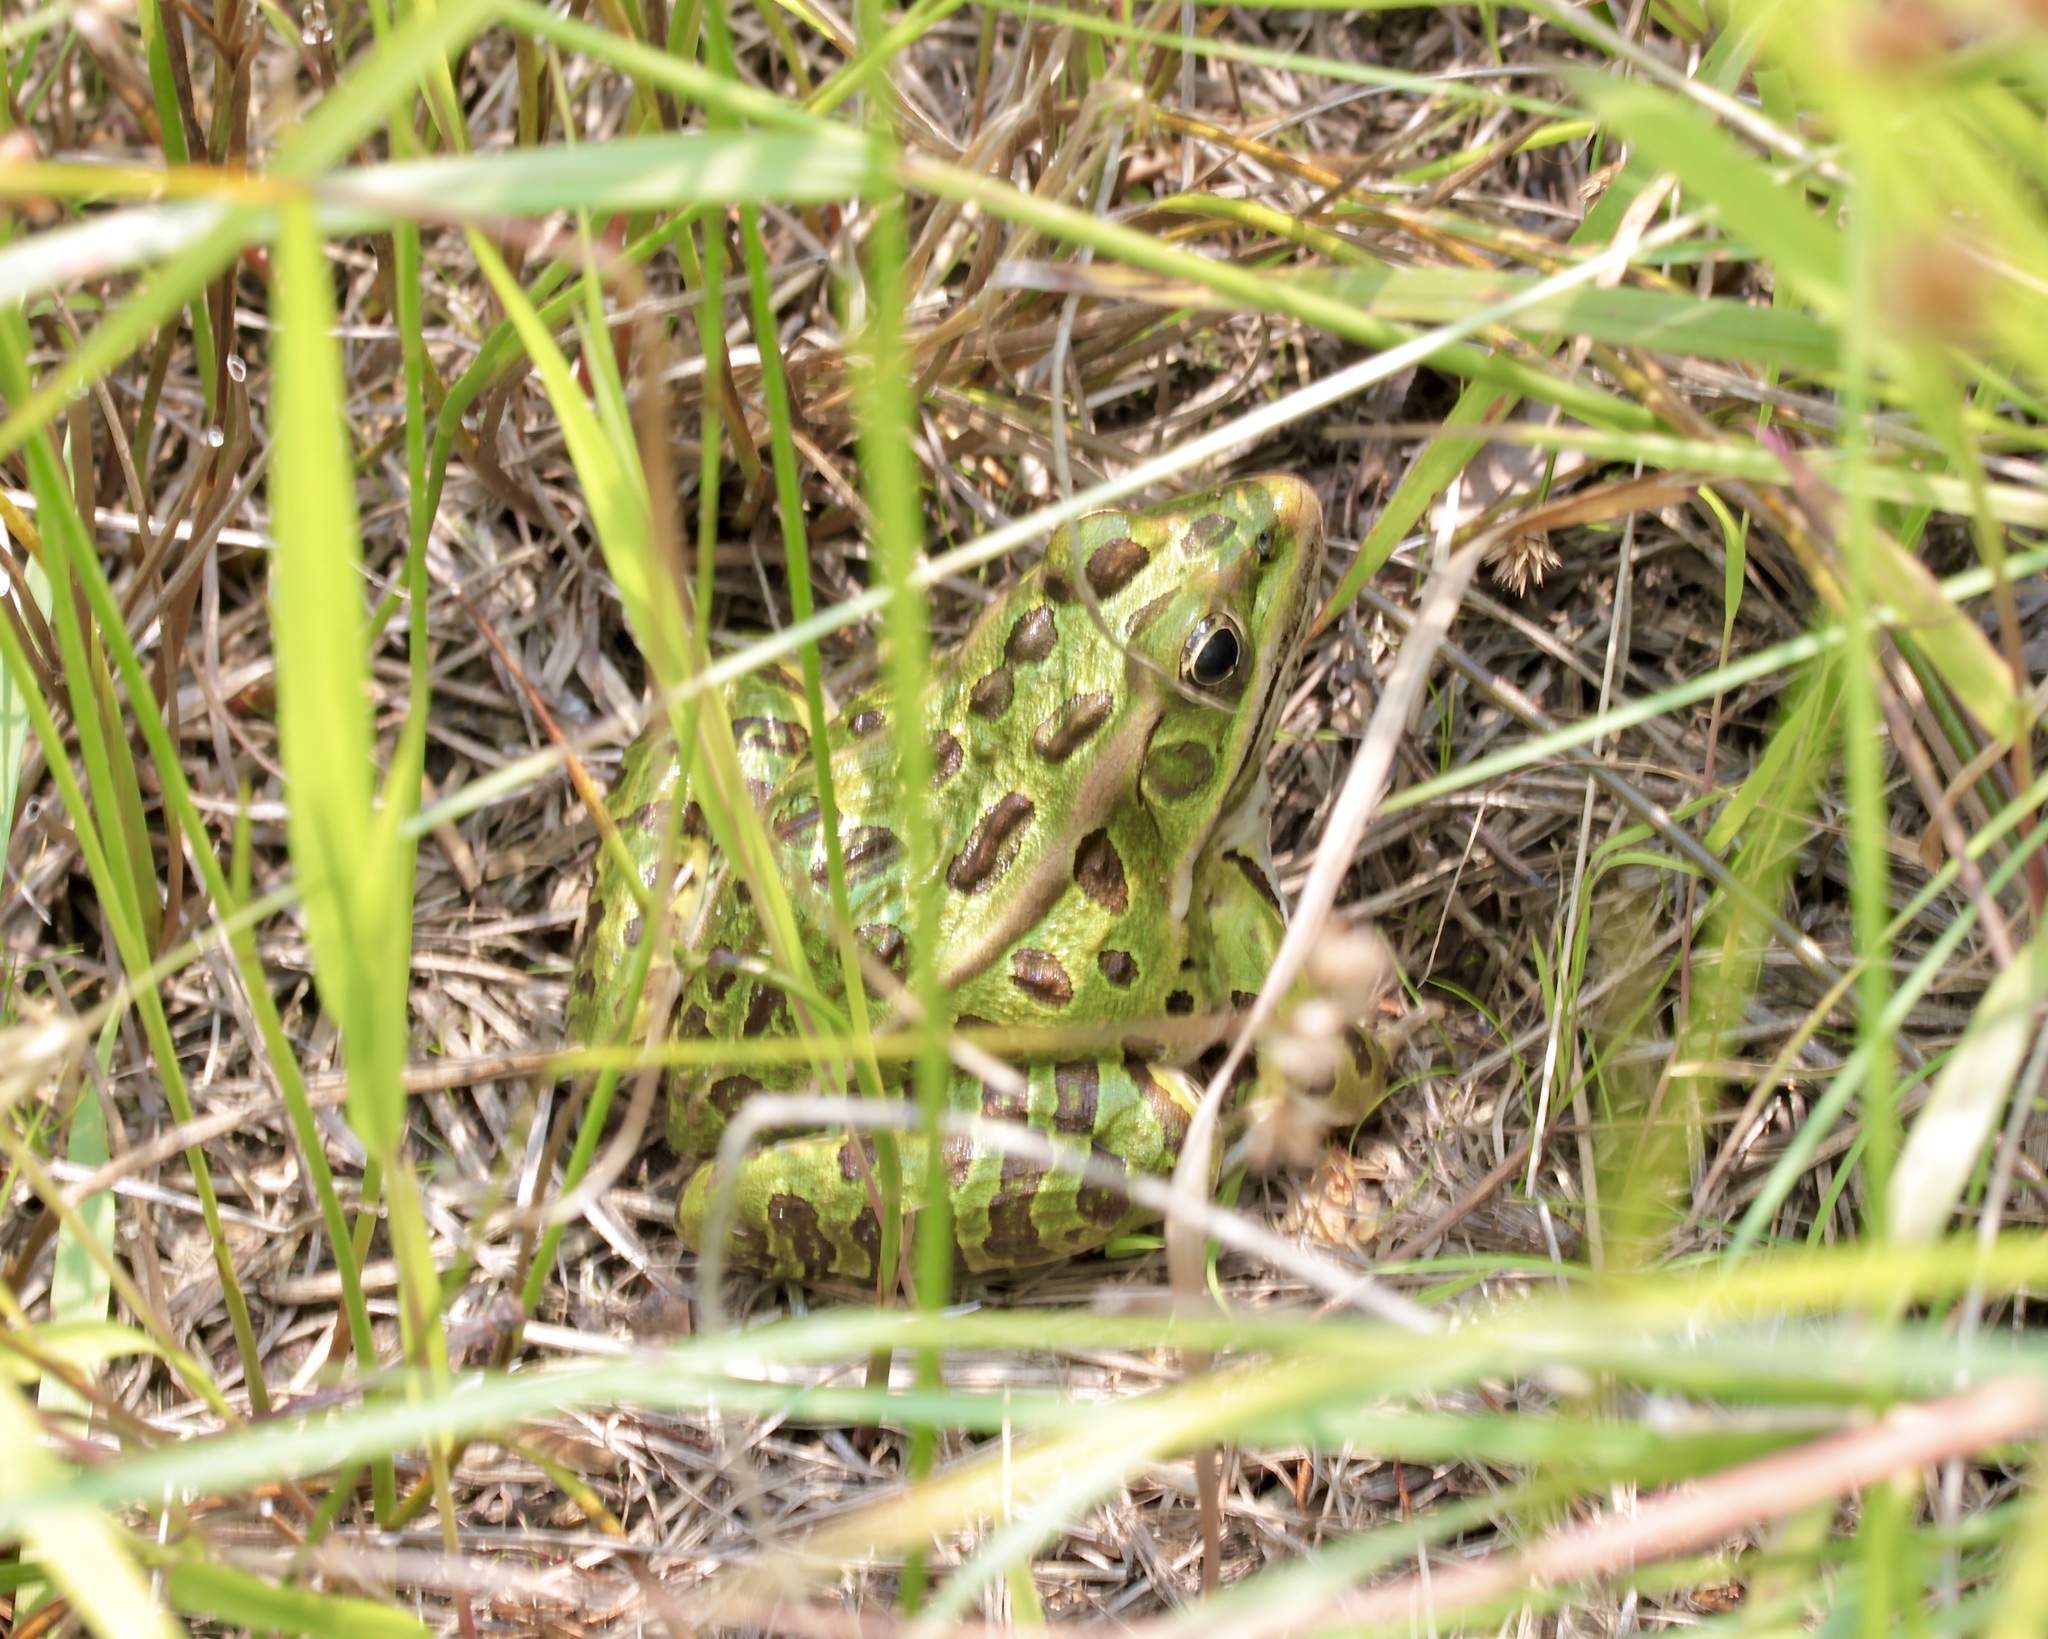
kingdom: Animalia
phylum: Chordata
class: Amphibia
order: Anura
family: Ranidae
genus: Lithobates
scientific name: Lithobates pipiens
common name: Northern leopard frog
